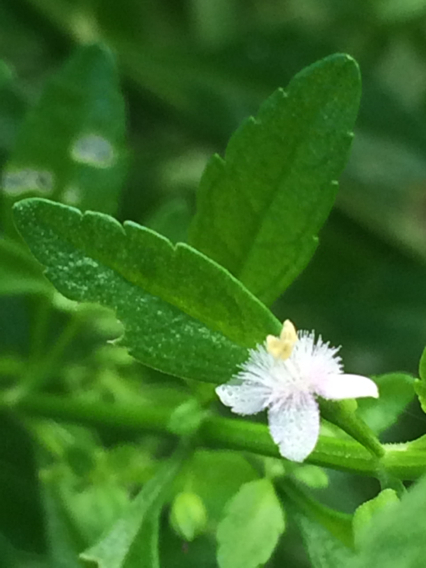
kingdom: Plantae
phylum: Tracheophyta
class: Magnoliopsida
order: Lamiales
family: Plantaginaceae
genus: Scoparia
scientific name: Scoparia dulcis
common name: Scoparia-weed
